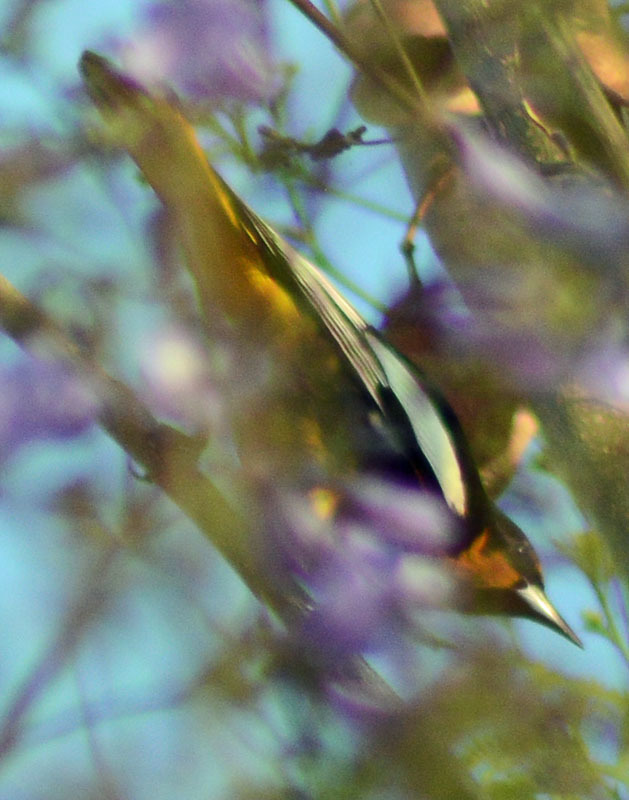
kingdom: Animalia
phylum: Chordata
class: Aves
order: Passeriformes
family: Icteridae
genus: Icterus
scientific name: Icterus abeillei
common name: Black-backed oriole
